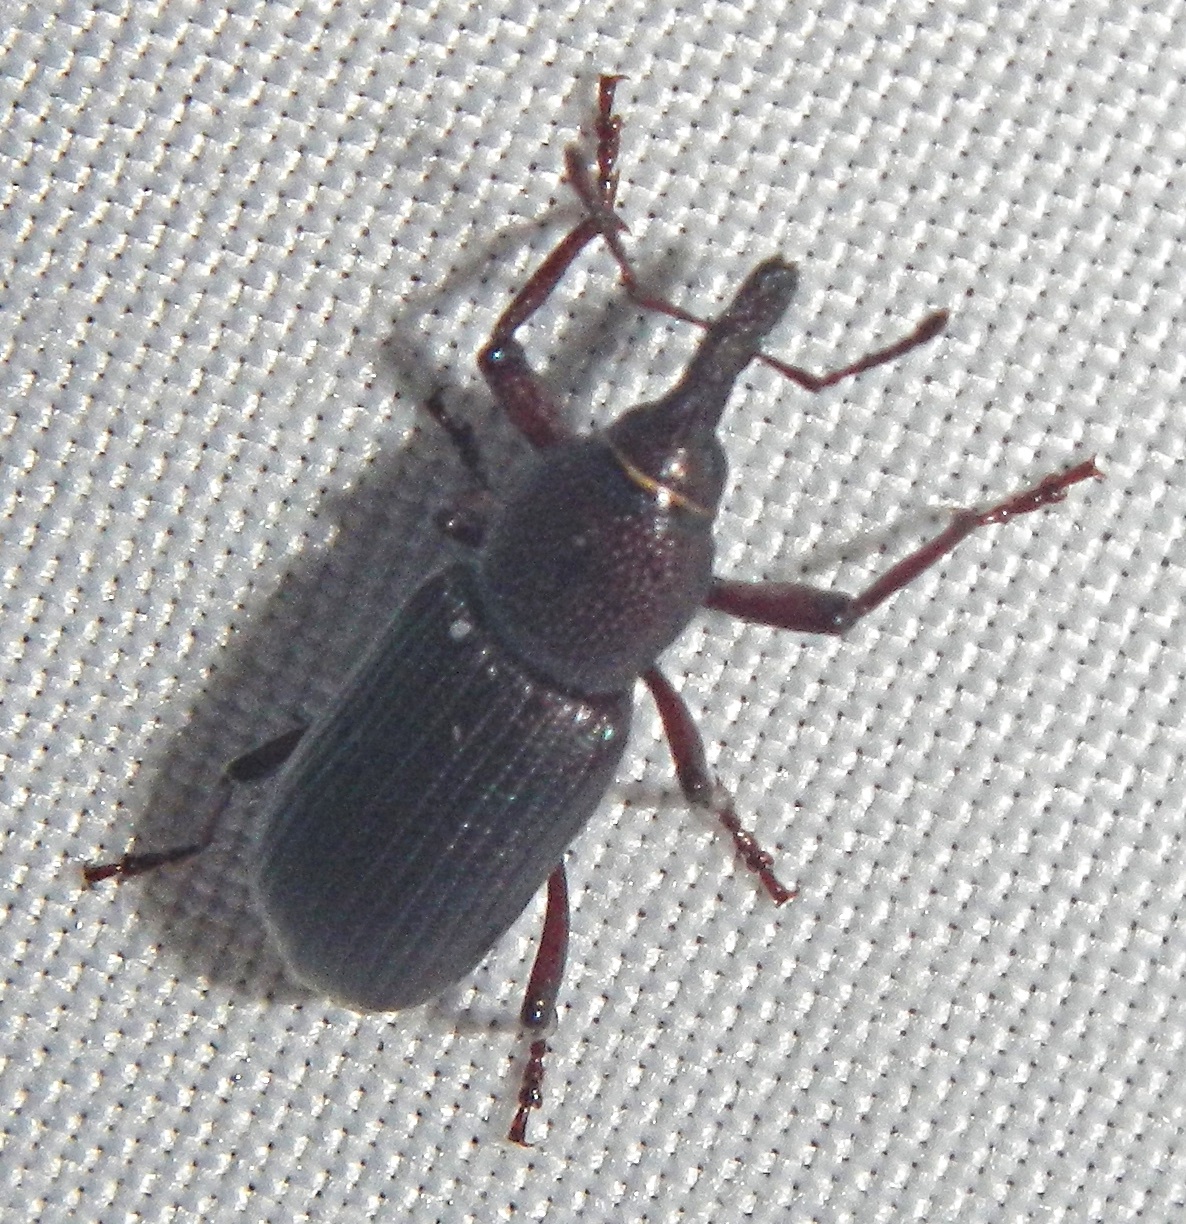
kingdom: Animalia
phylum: Arthropoda
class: Insecta
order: Coleoptera
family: Dryophthoridae
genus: Rhinostomus
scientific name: Rhinostomus
